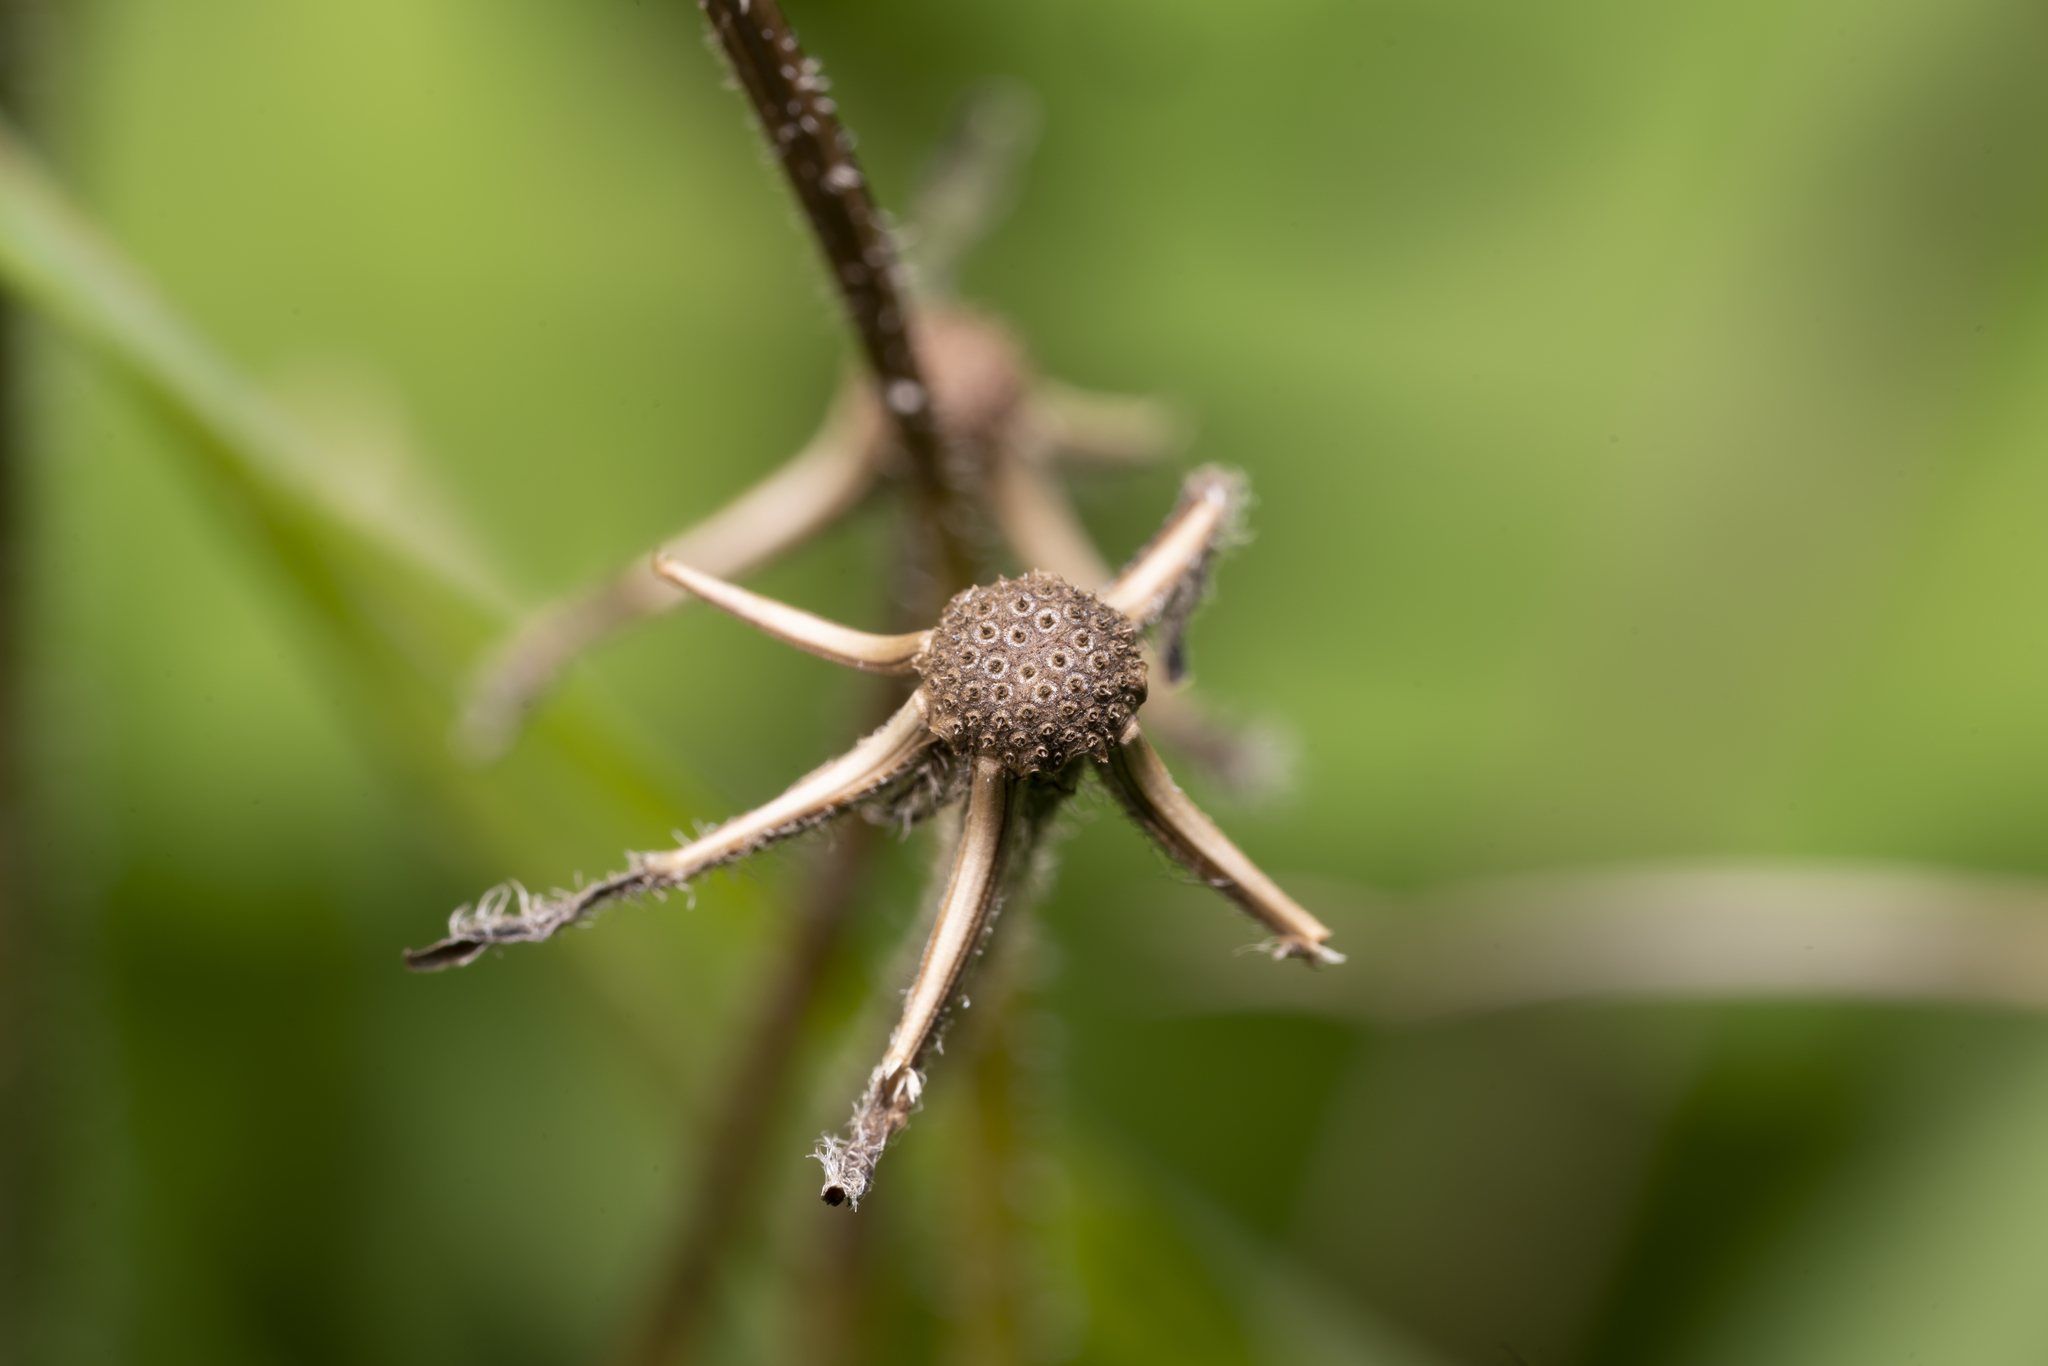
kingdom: Plantae
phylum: Tracheophyta
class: Magnoliopsida
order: Asterales
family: Asteraceae
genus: Leontodon
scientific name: Leontodon tuberosus
